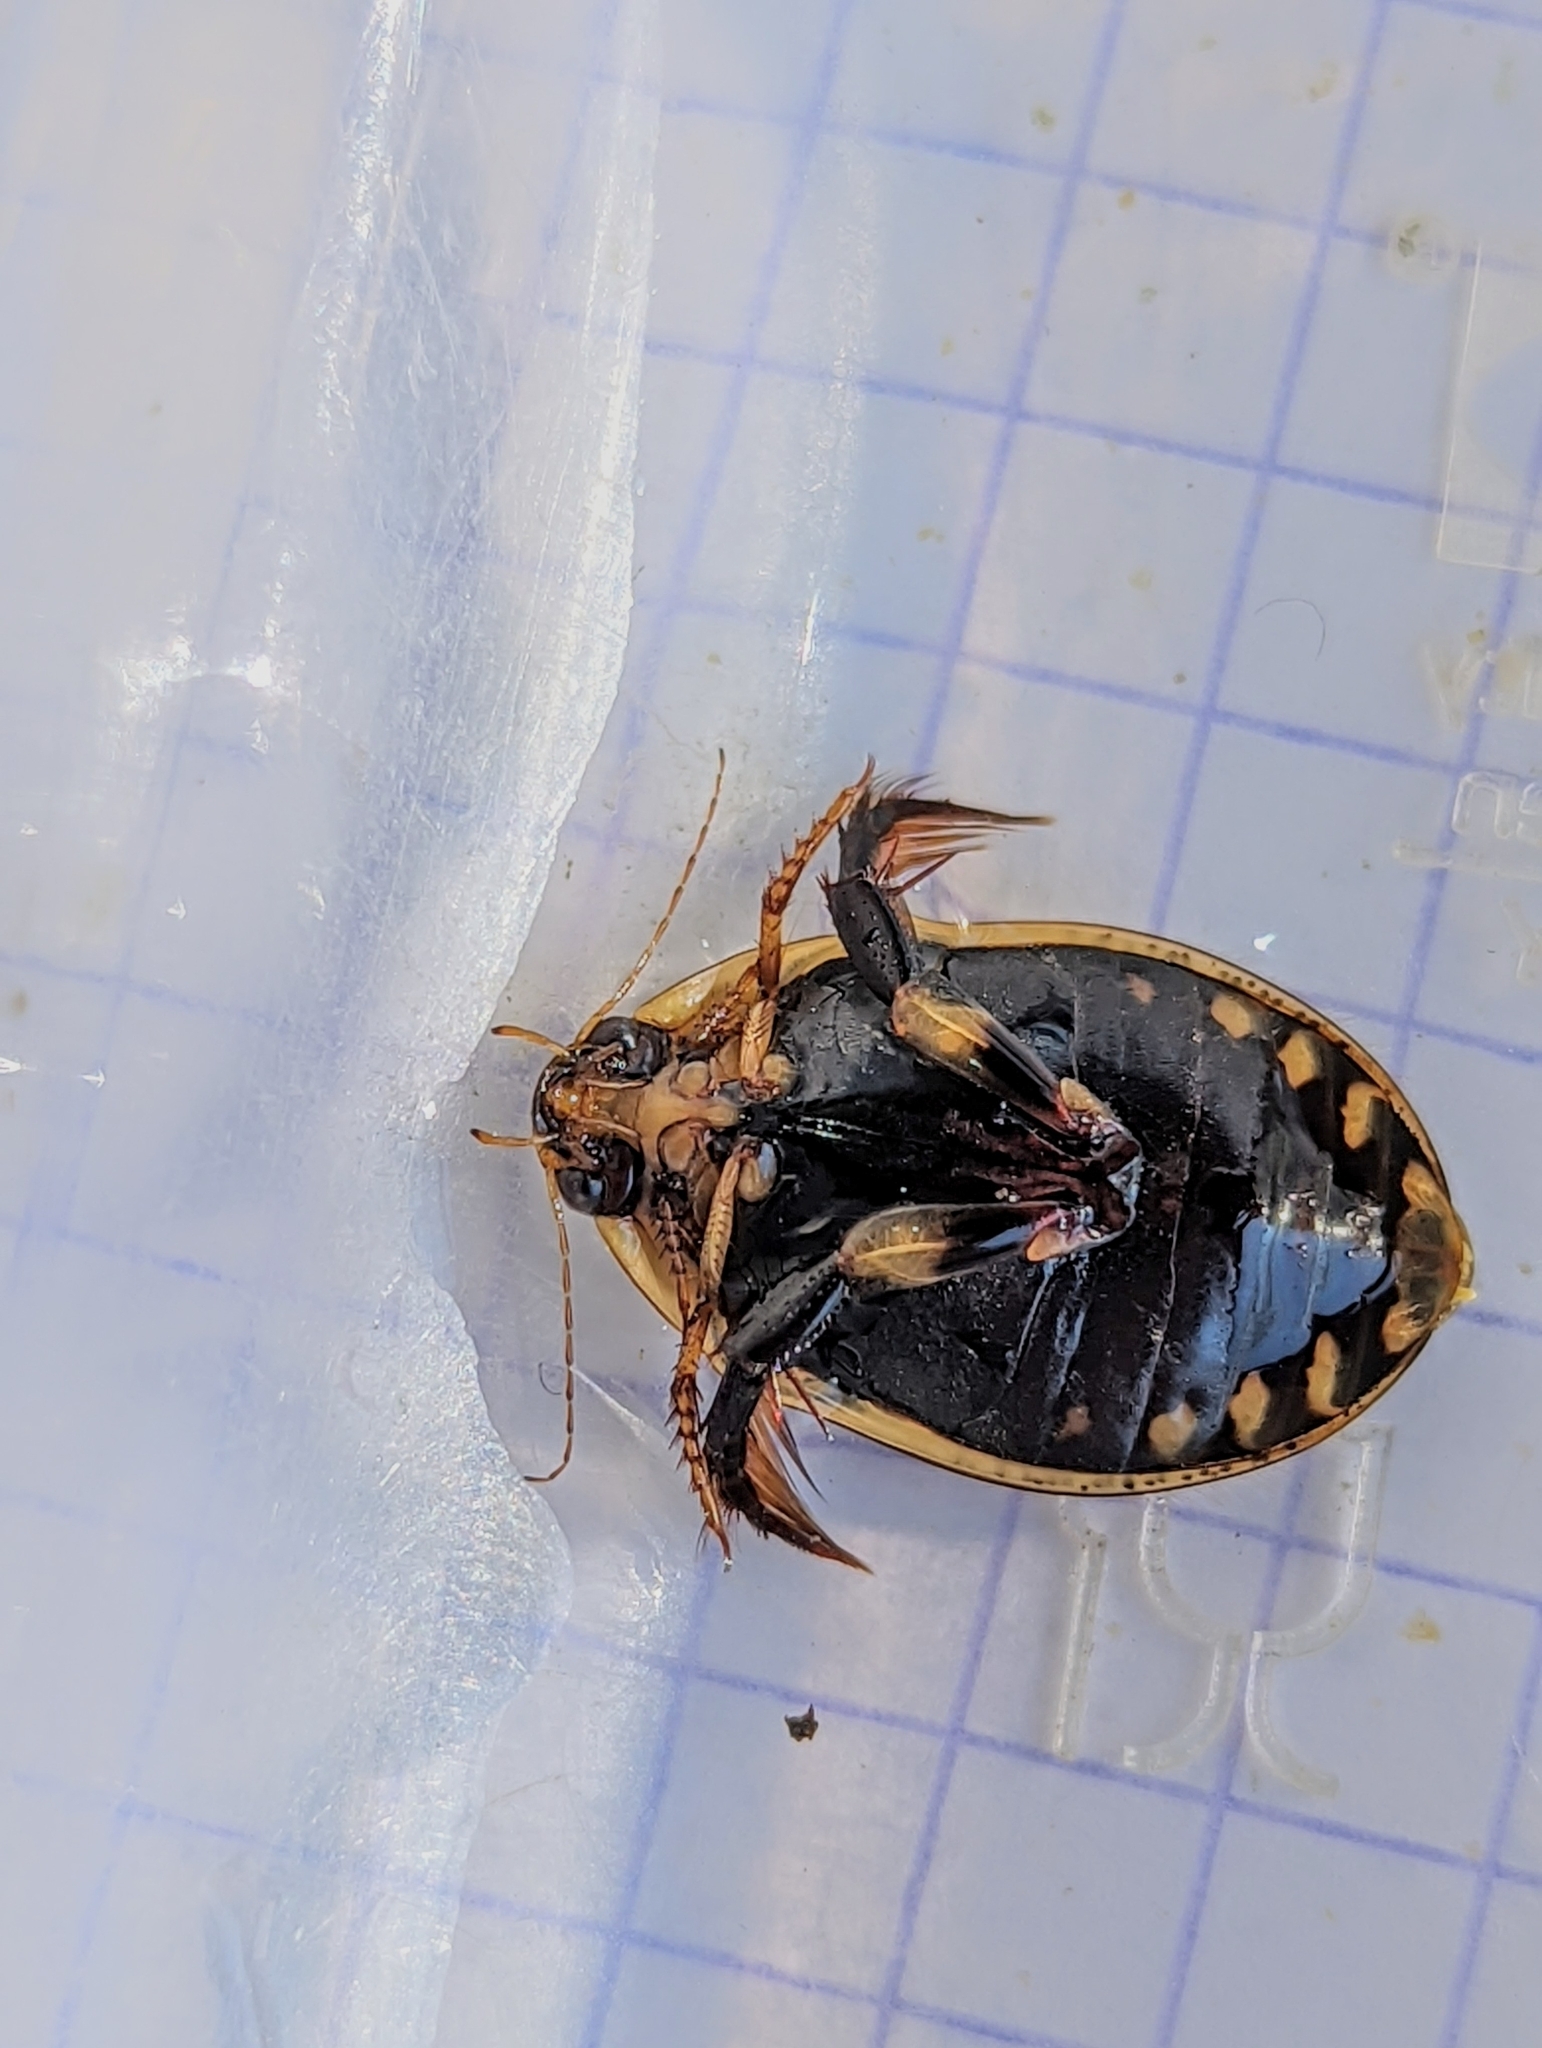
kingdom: Animalia
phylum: Arthropoda
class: Insecta
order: Coleoptera
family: Dytiscidae
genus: Acilius
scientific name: Acilius sulcatus
